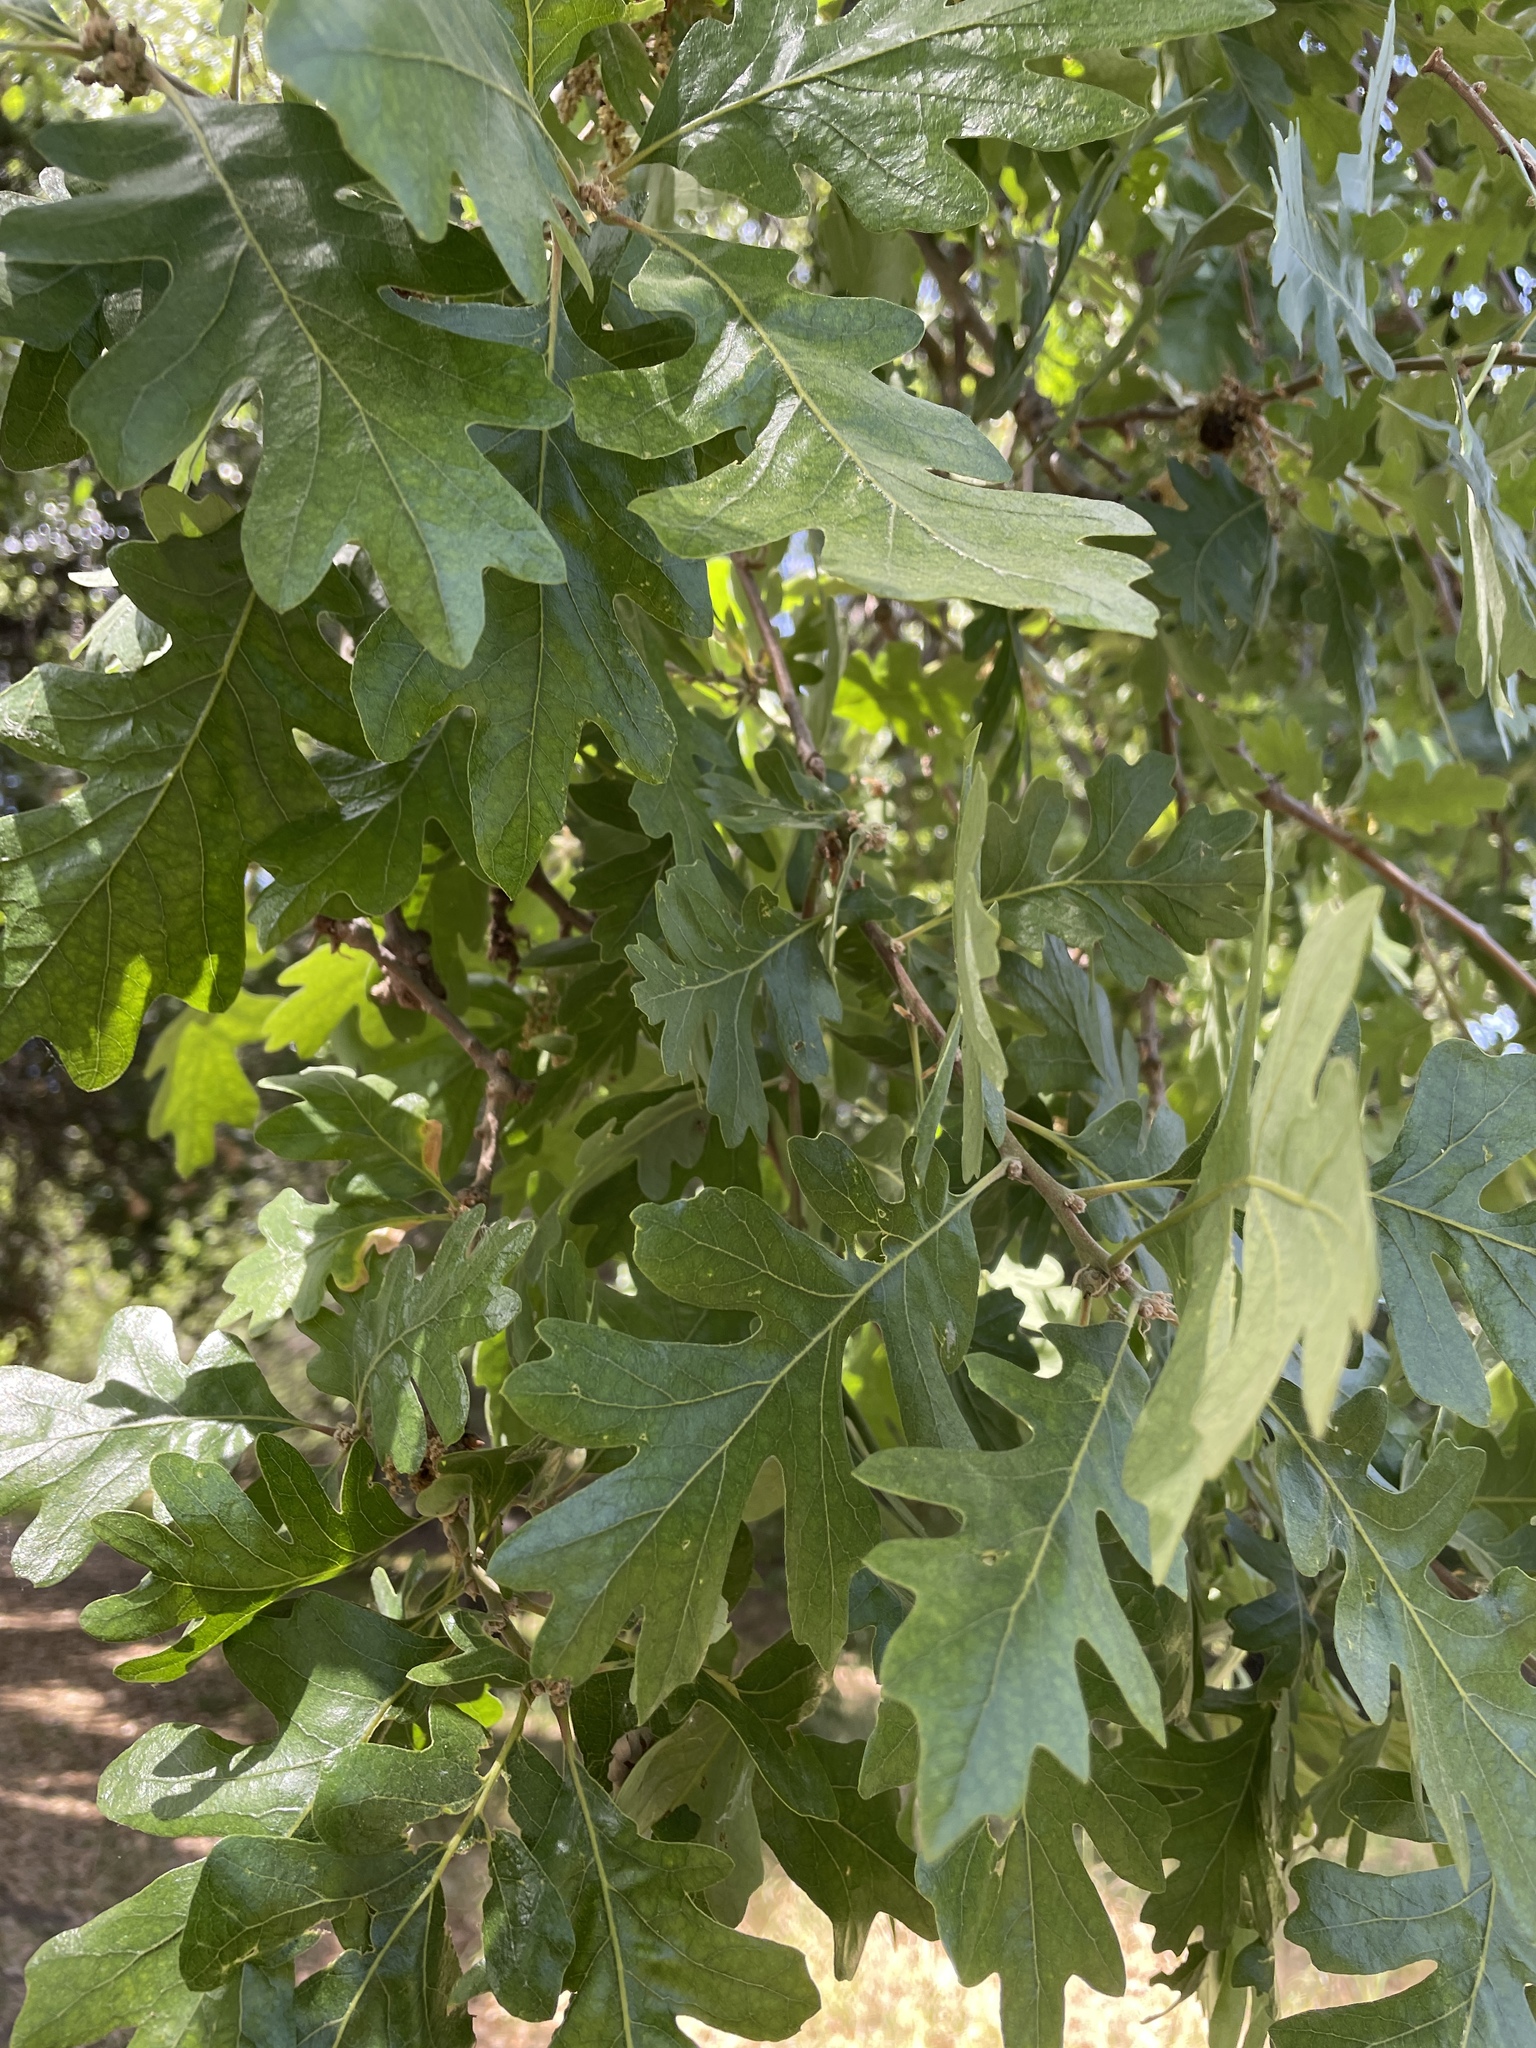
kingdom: Plantae
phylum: Tracheophyta
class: Magnoliopsida
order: Fagales
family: Fagaceae
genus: Quercus
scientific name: Quercus lobata
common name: Valley oak
